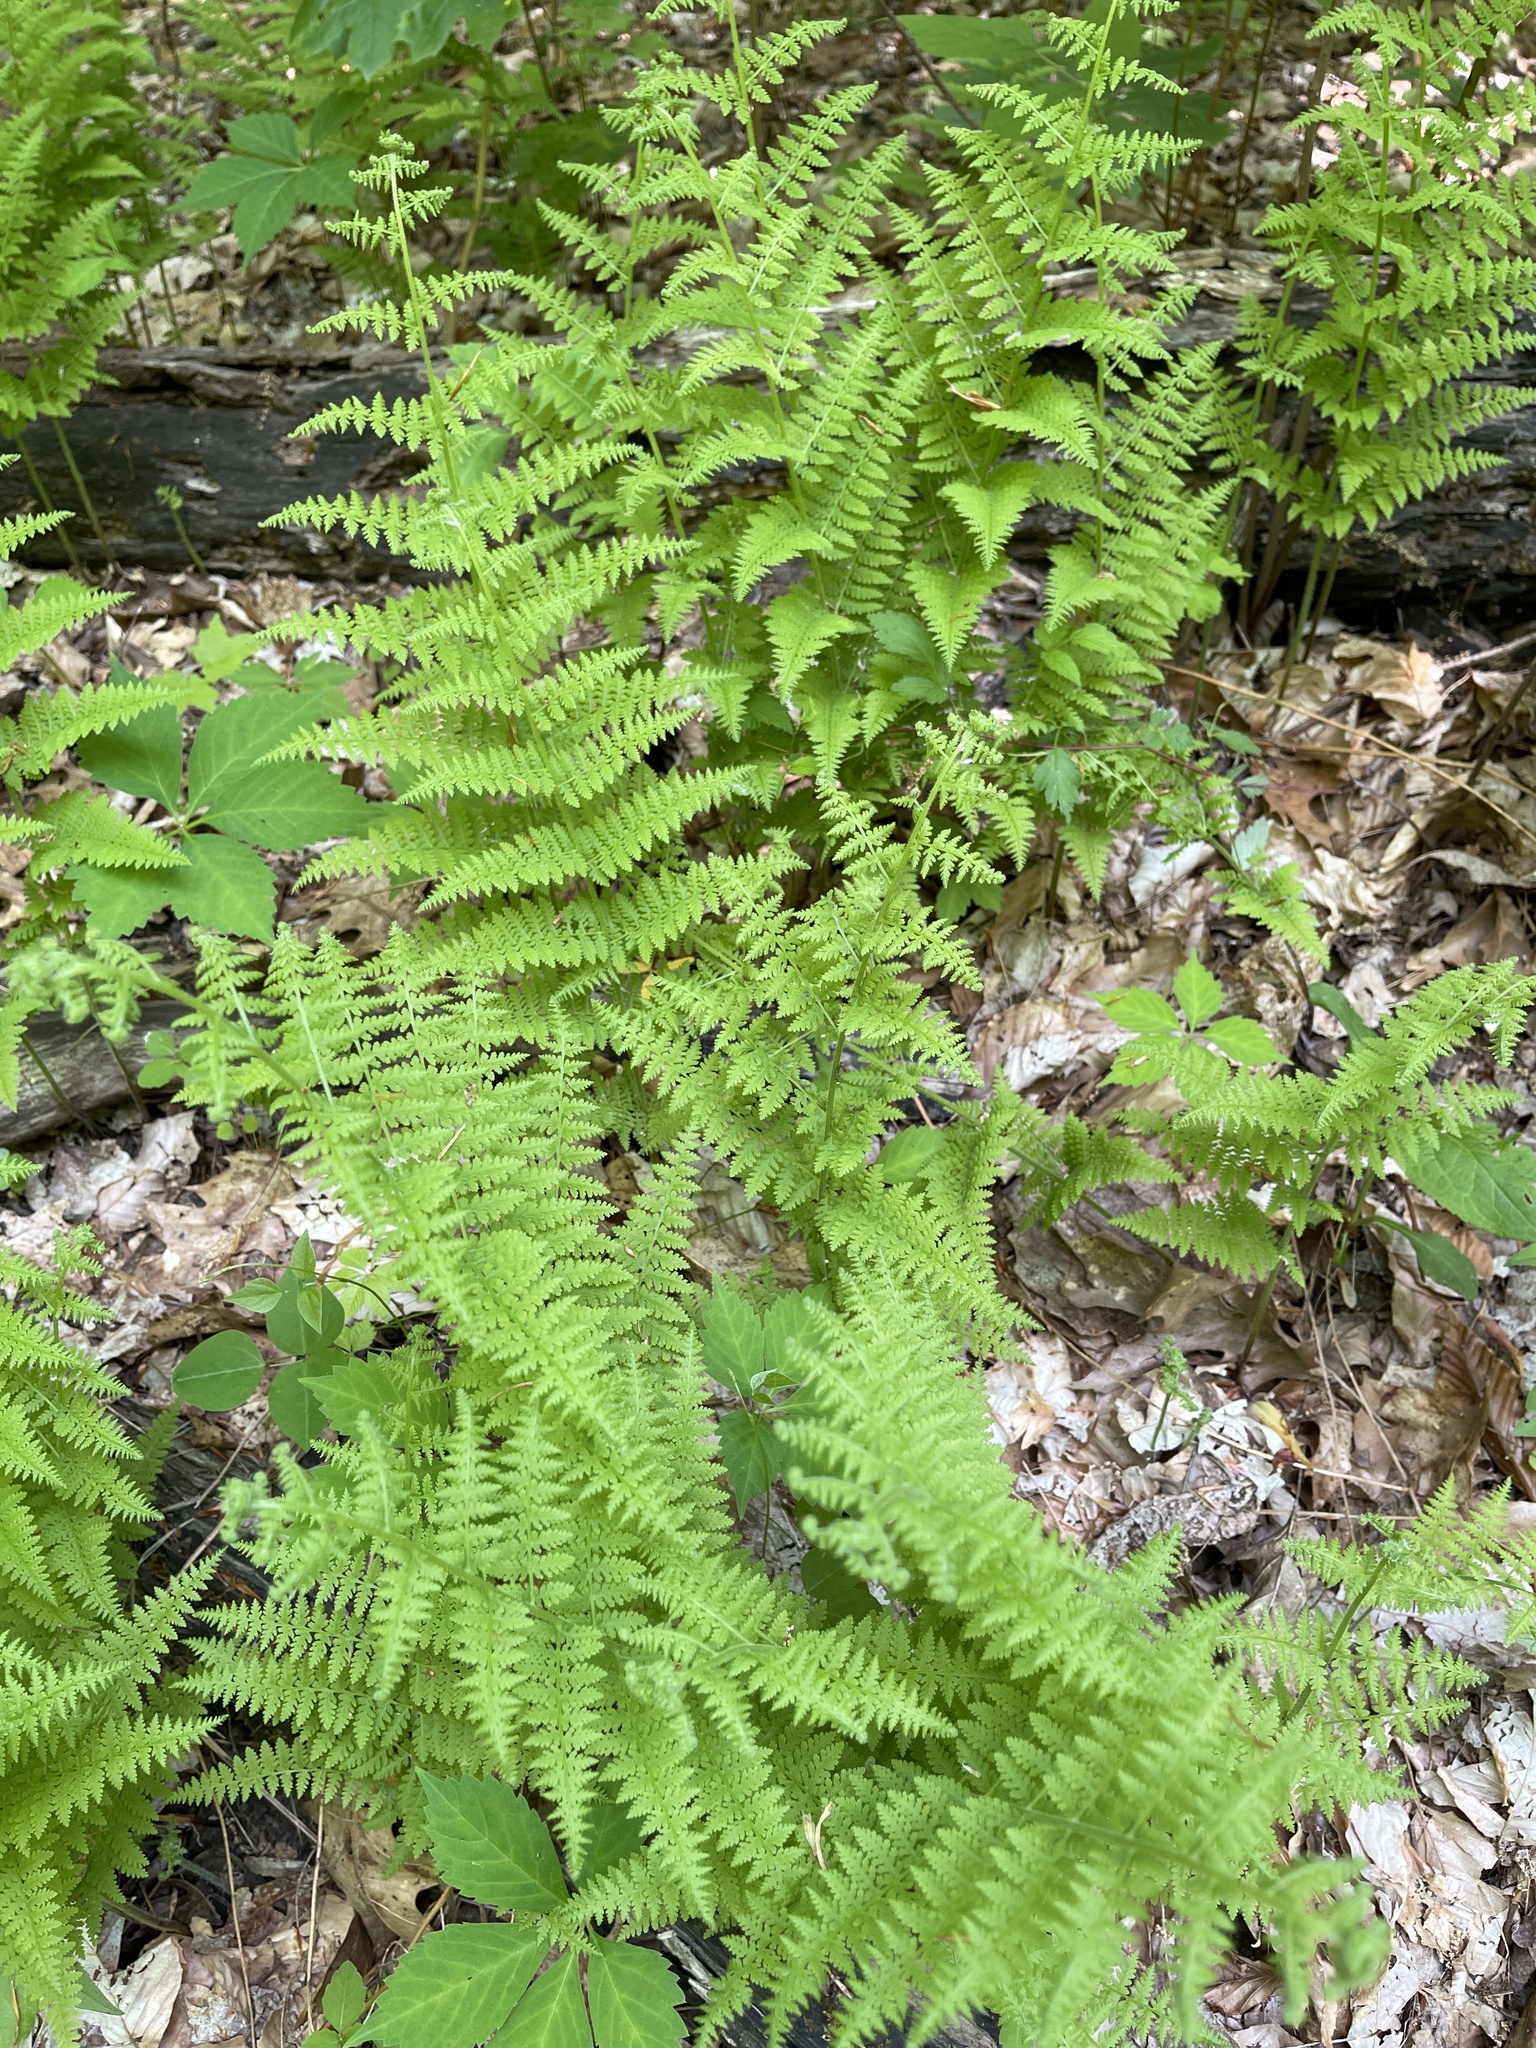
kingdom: Plantae
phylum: Tracheophyta
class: Polypodiopsida
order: Polypodiales
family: Dennstaedtiaceae
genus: Sitobolium
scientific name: Sitobolium punctilobum
